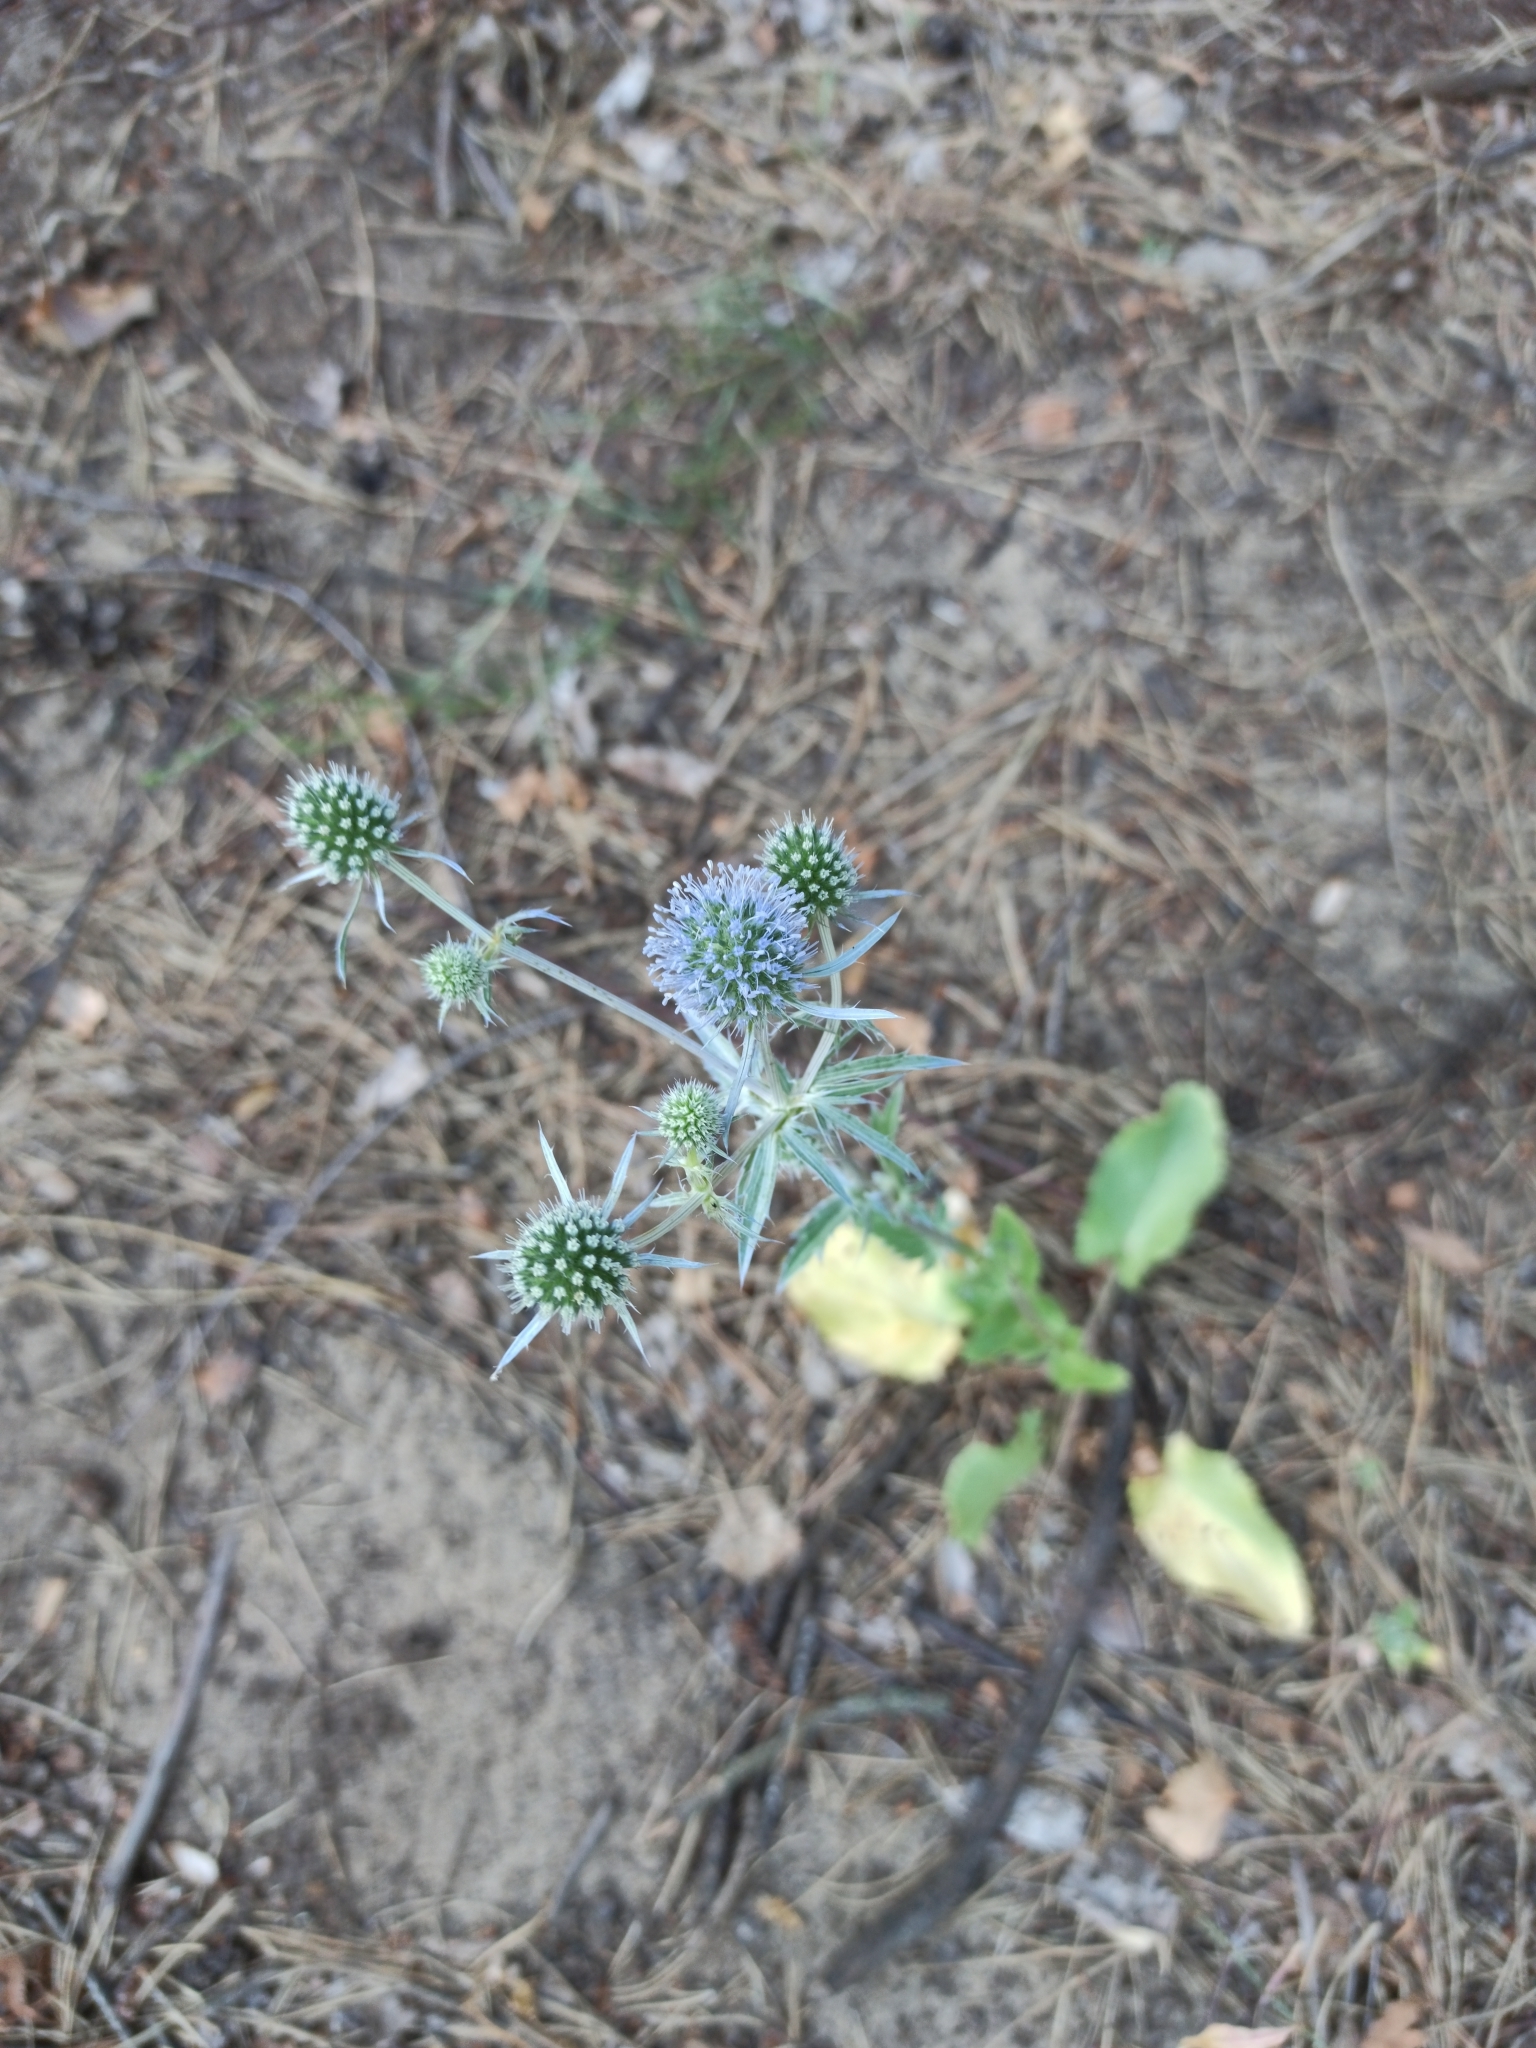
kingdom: Plantae
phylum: Tracheophyta
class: Magnoliopsida
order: Apiales
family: Apiaceae
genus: Eryngium
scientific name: Eryngium planum
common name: Blue eryngo
